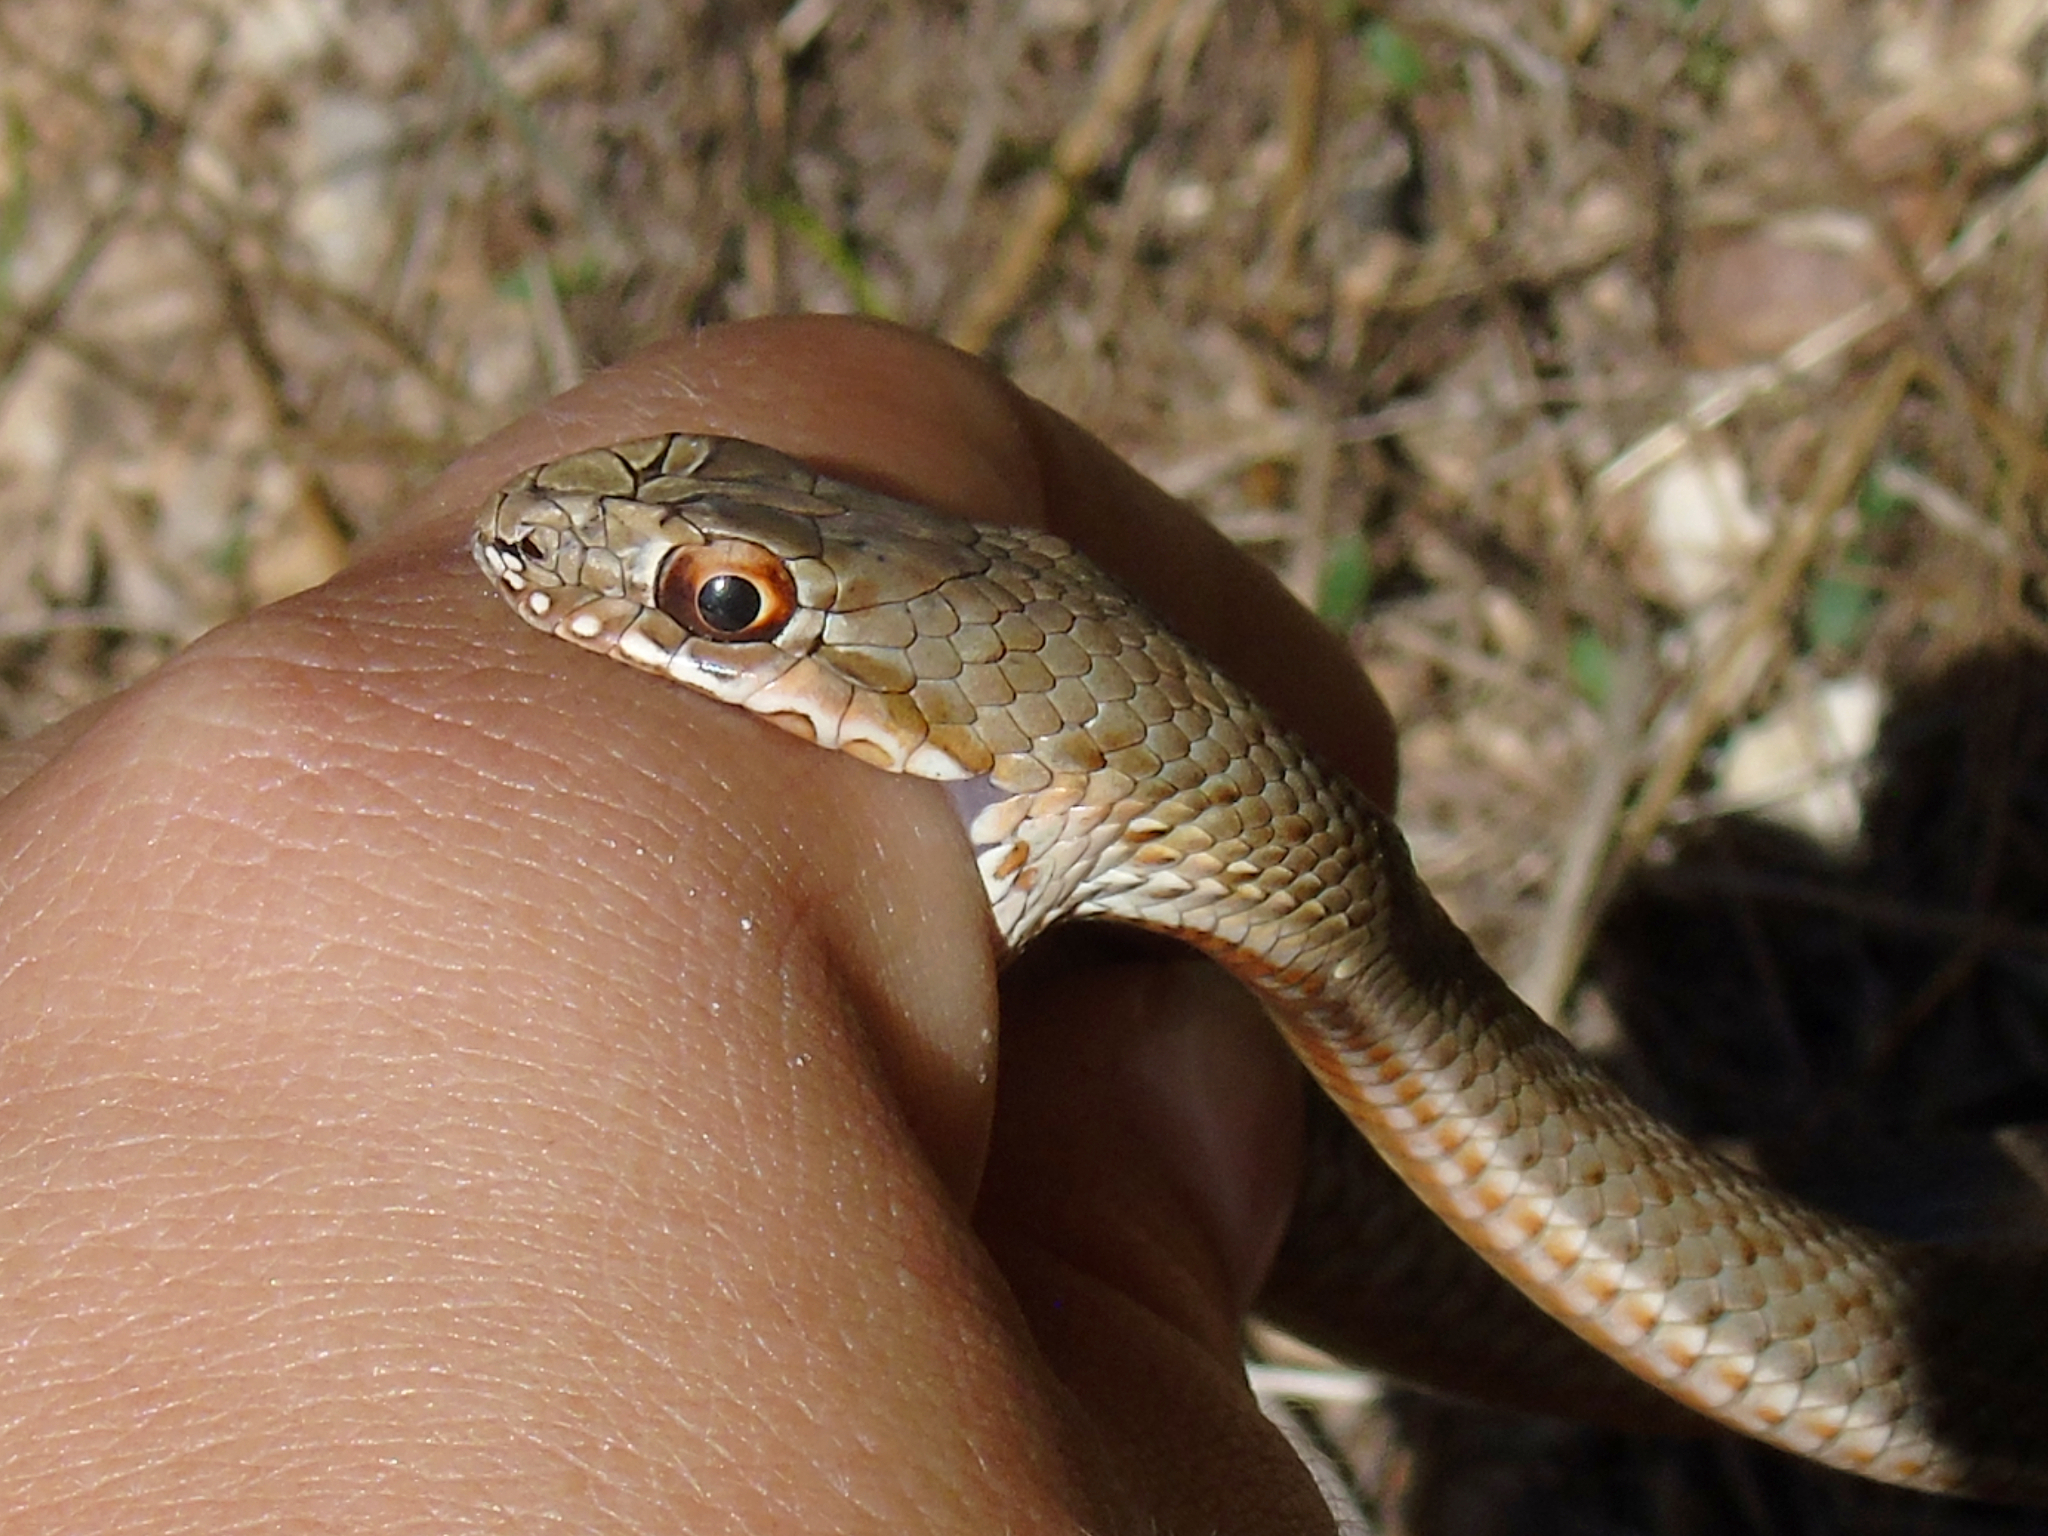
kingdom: Animalia
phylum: Chordata
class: Squamata
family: Psammophiidae
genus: Malpolon
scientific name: Malpolon insignitus
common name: Eastern montpellier snake
